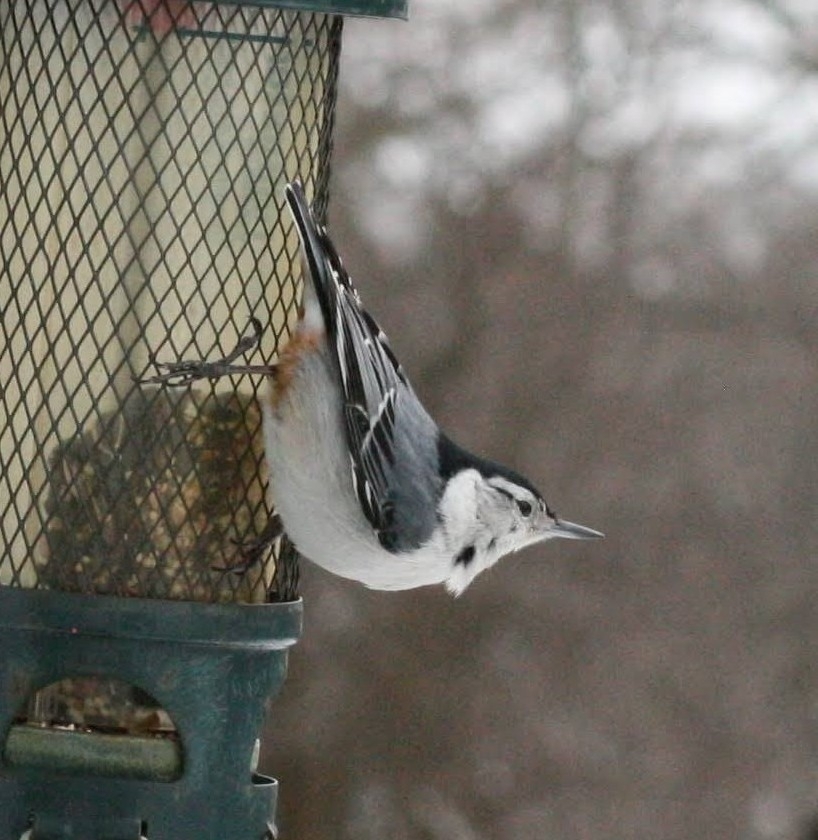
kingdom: Animalia
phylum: Chordata
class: Aves
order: Passeriformes
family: Sittidae
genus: Sitta
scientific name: Sitta carolinensis
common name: White-breasted nuthatch
